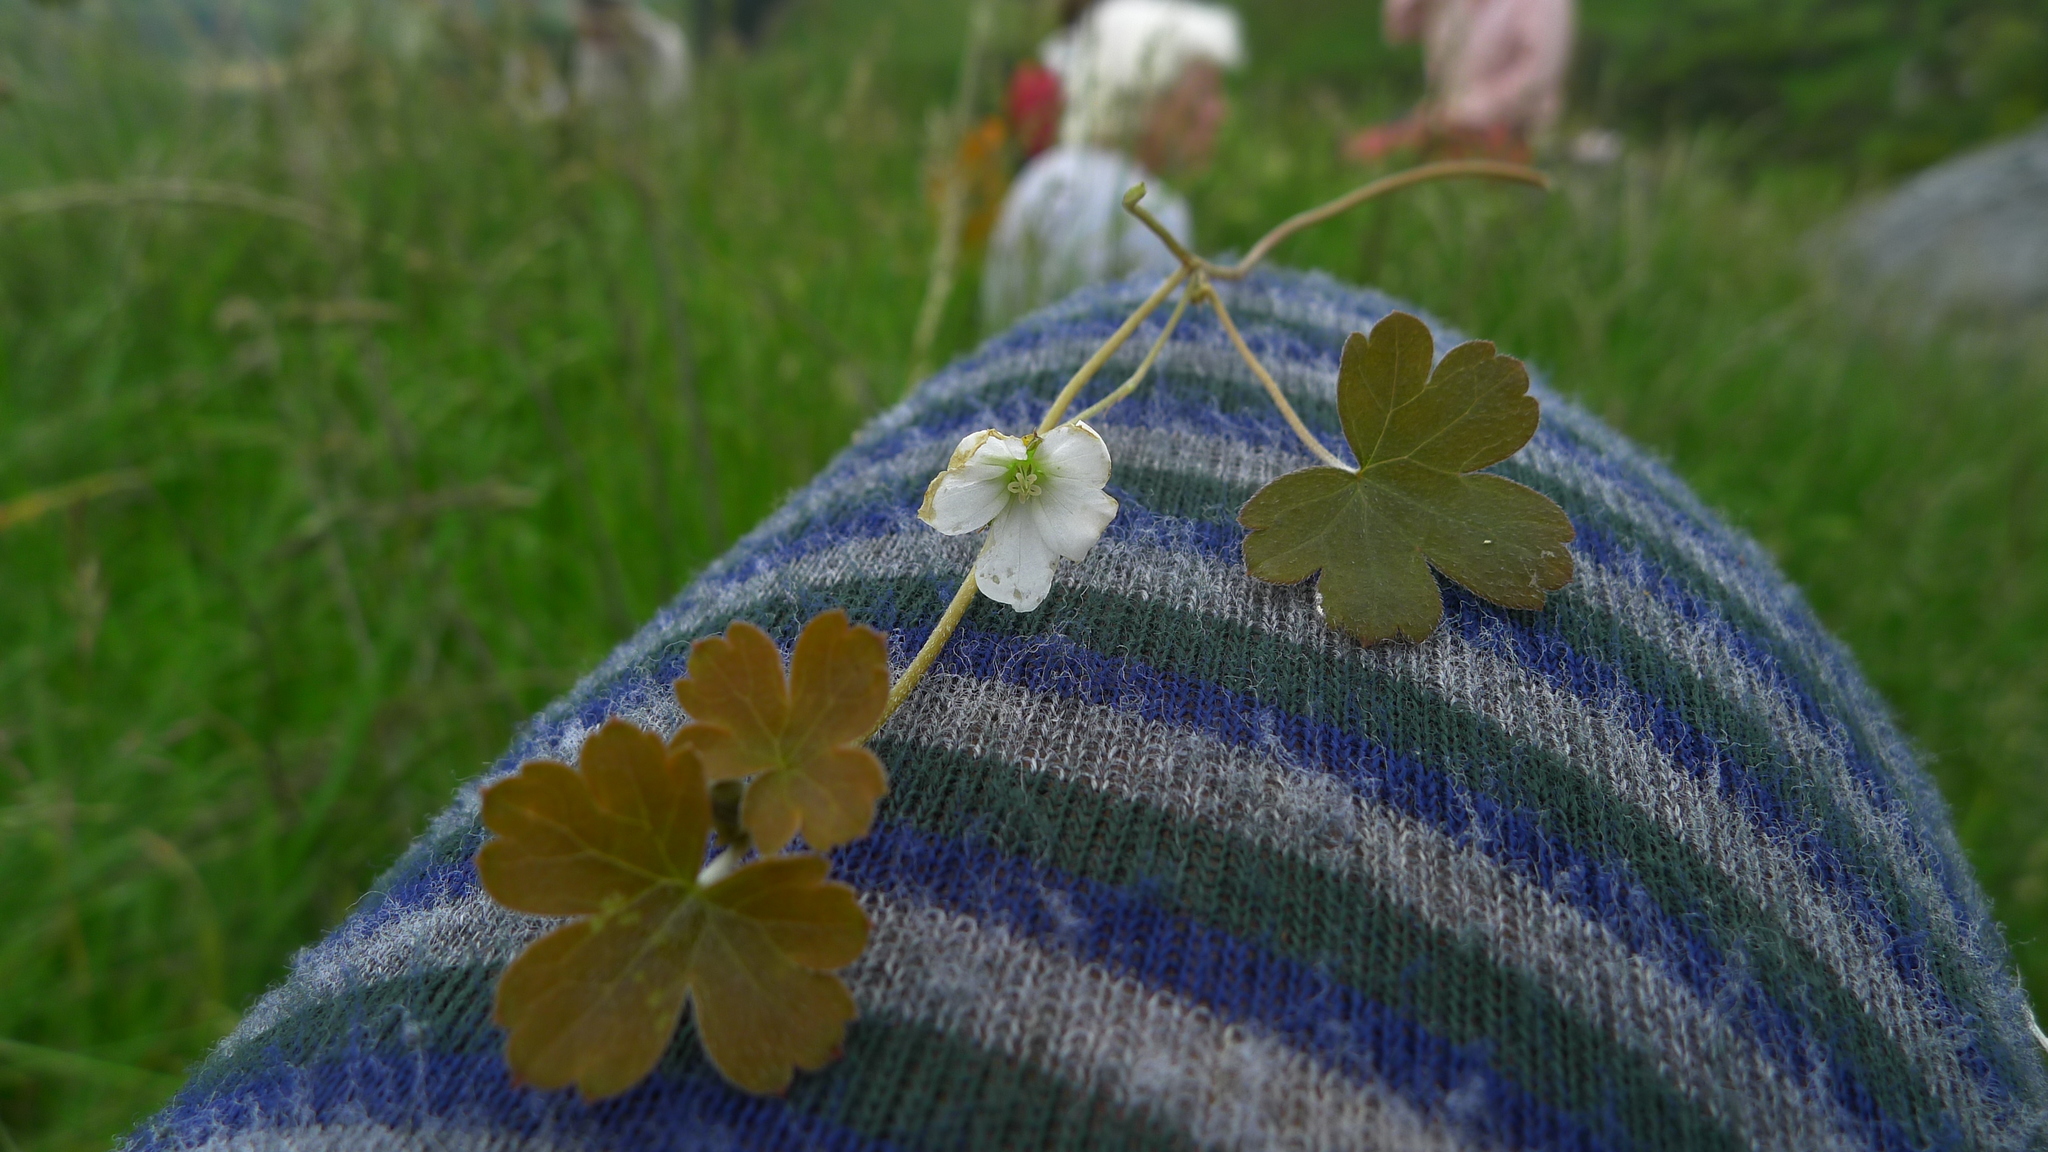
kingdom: Plantae
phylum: Tracheophyta
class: Magnoliopsida
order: Geraniales
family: Geraniaceae
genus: Geranium
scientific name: Geranium
